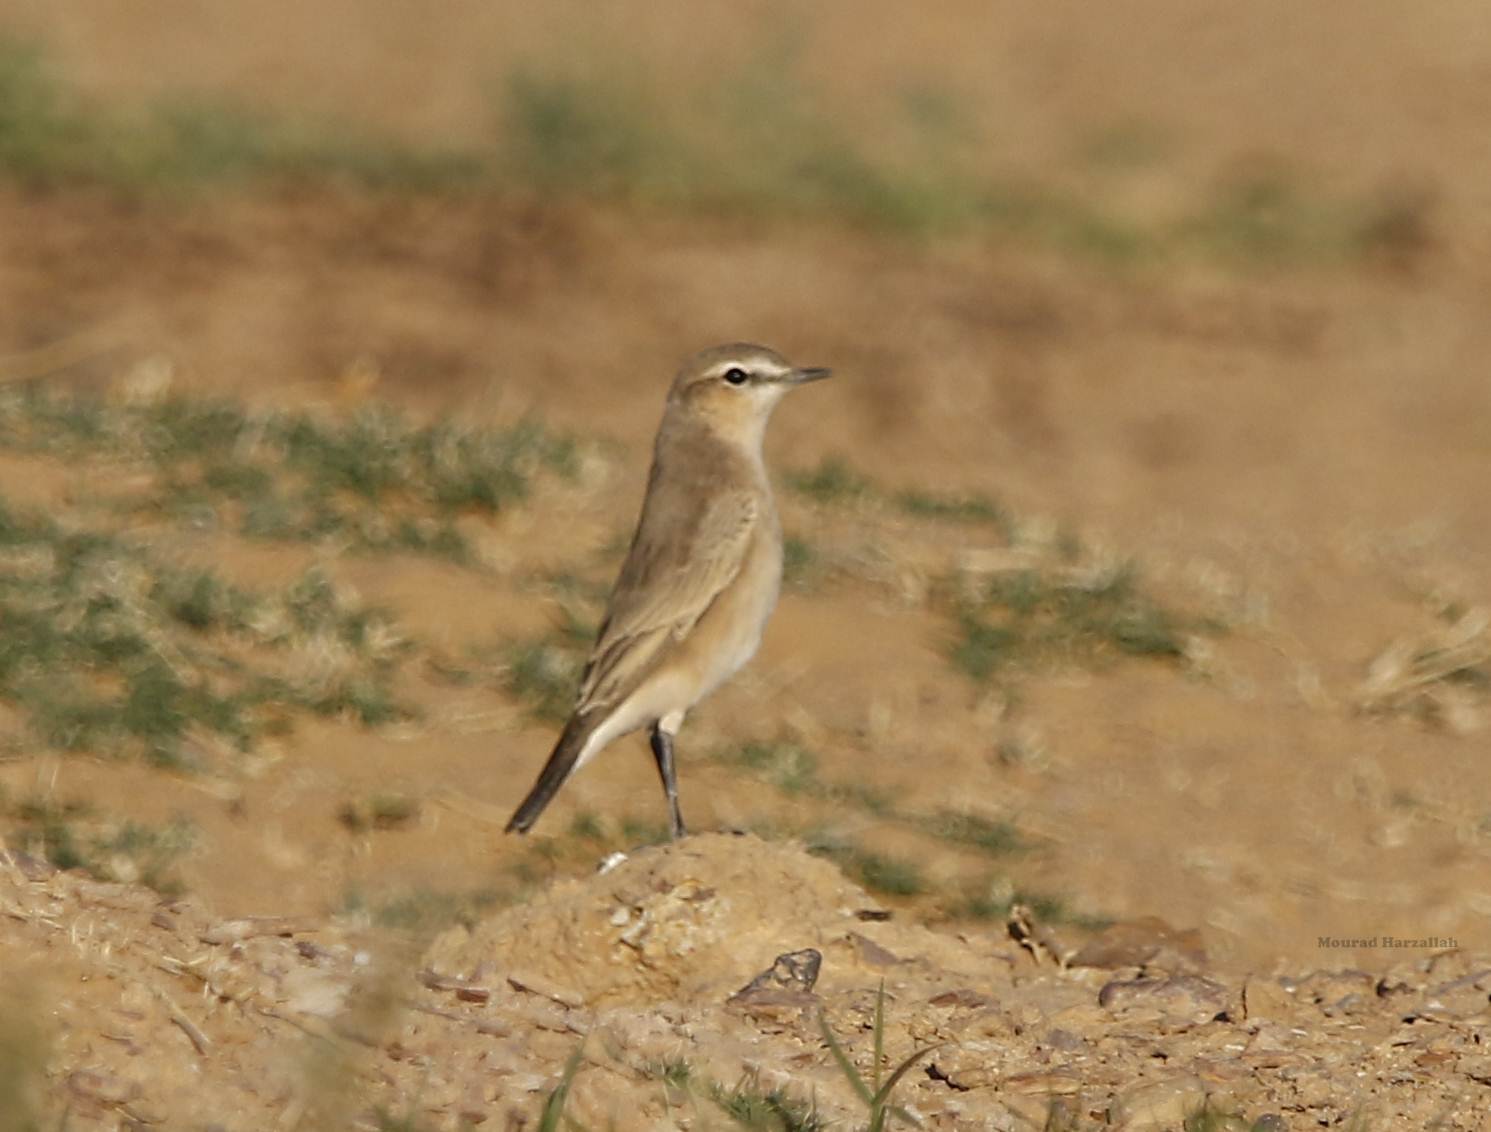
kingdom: Animalia
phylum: Chordata
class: Aves
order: Passeriformes
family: Muscicapidae
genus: Oenanthe
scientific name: Oenanthe isabellina
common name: Isabelline wheatear
